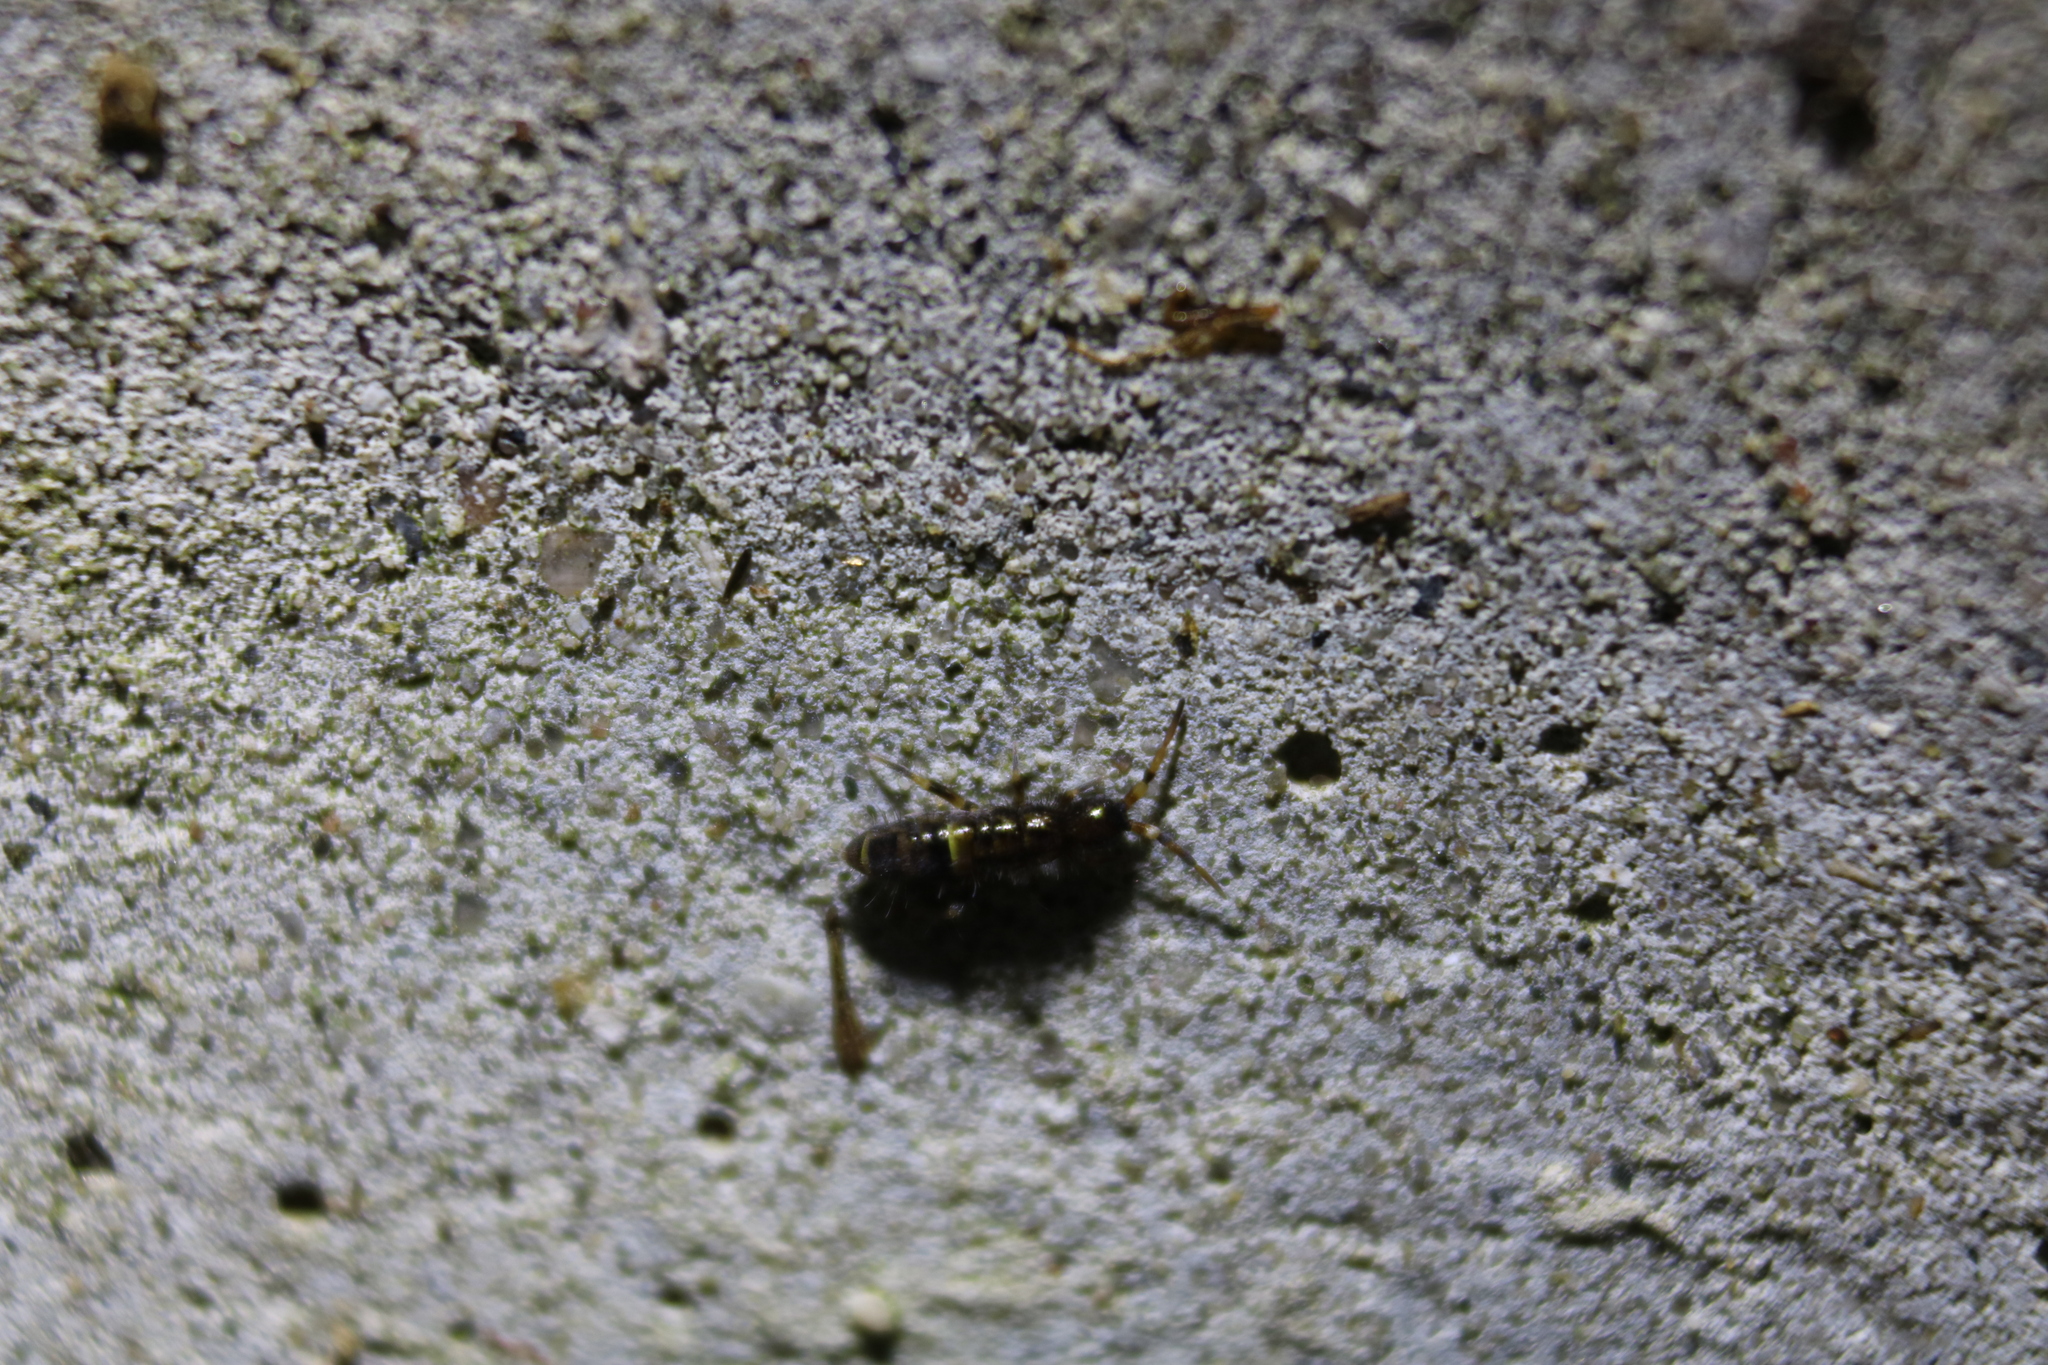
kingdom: Animalia
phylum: Arthropoda
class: Collembola
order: Entomobryomorpha
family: Orchesellidae
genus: Orchesella
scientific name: Orchesella cincta
